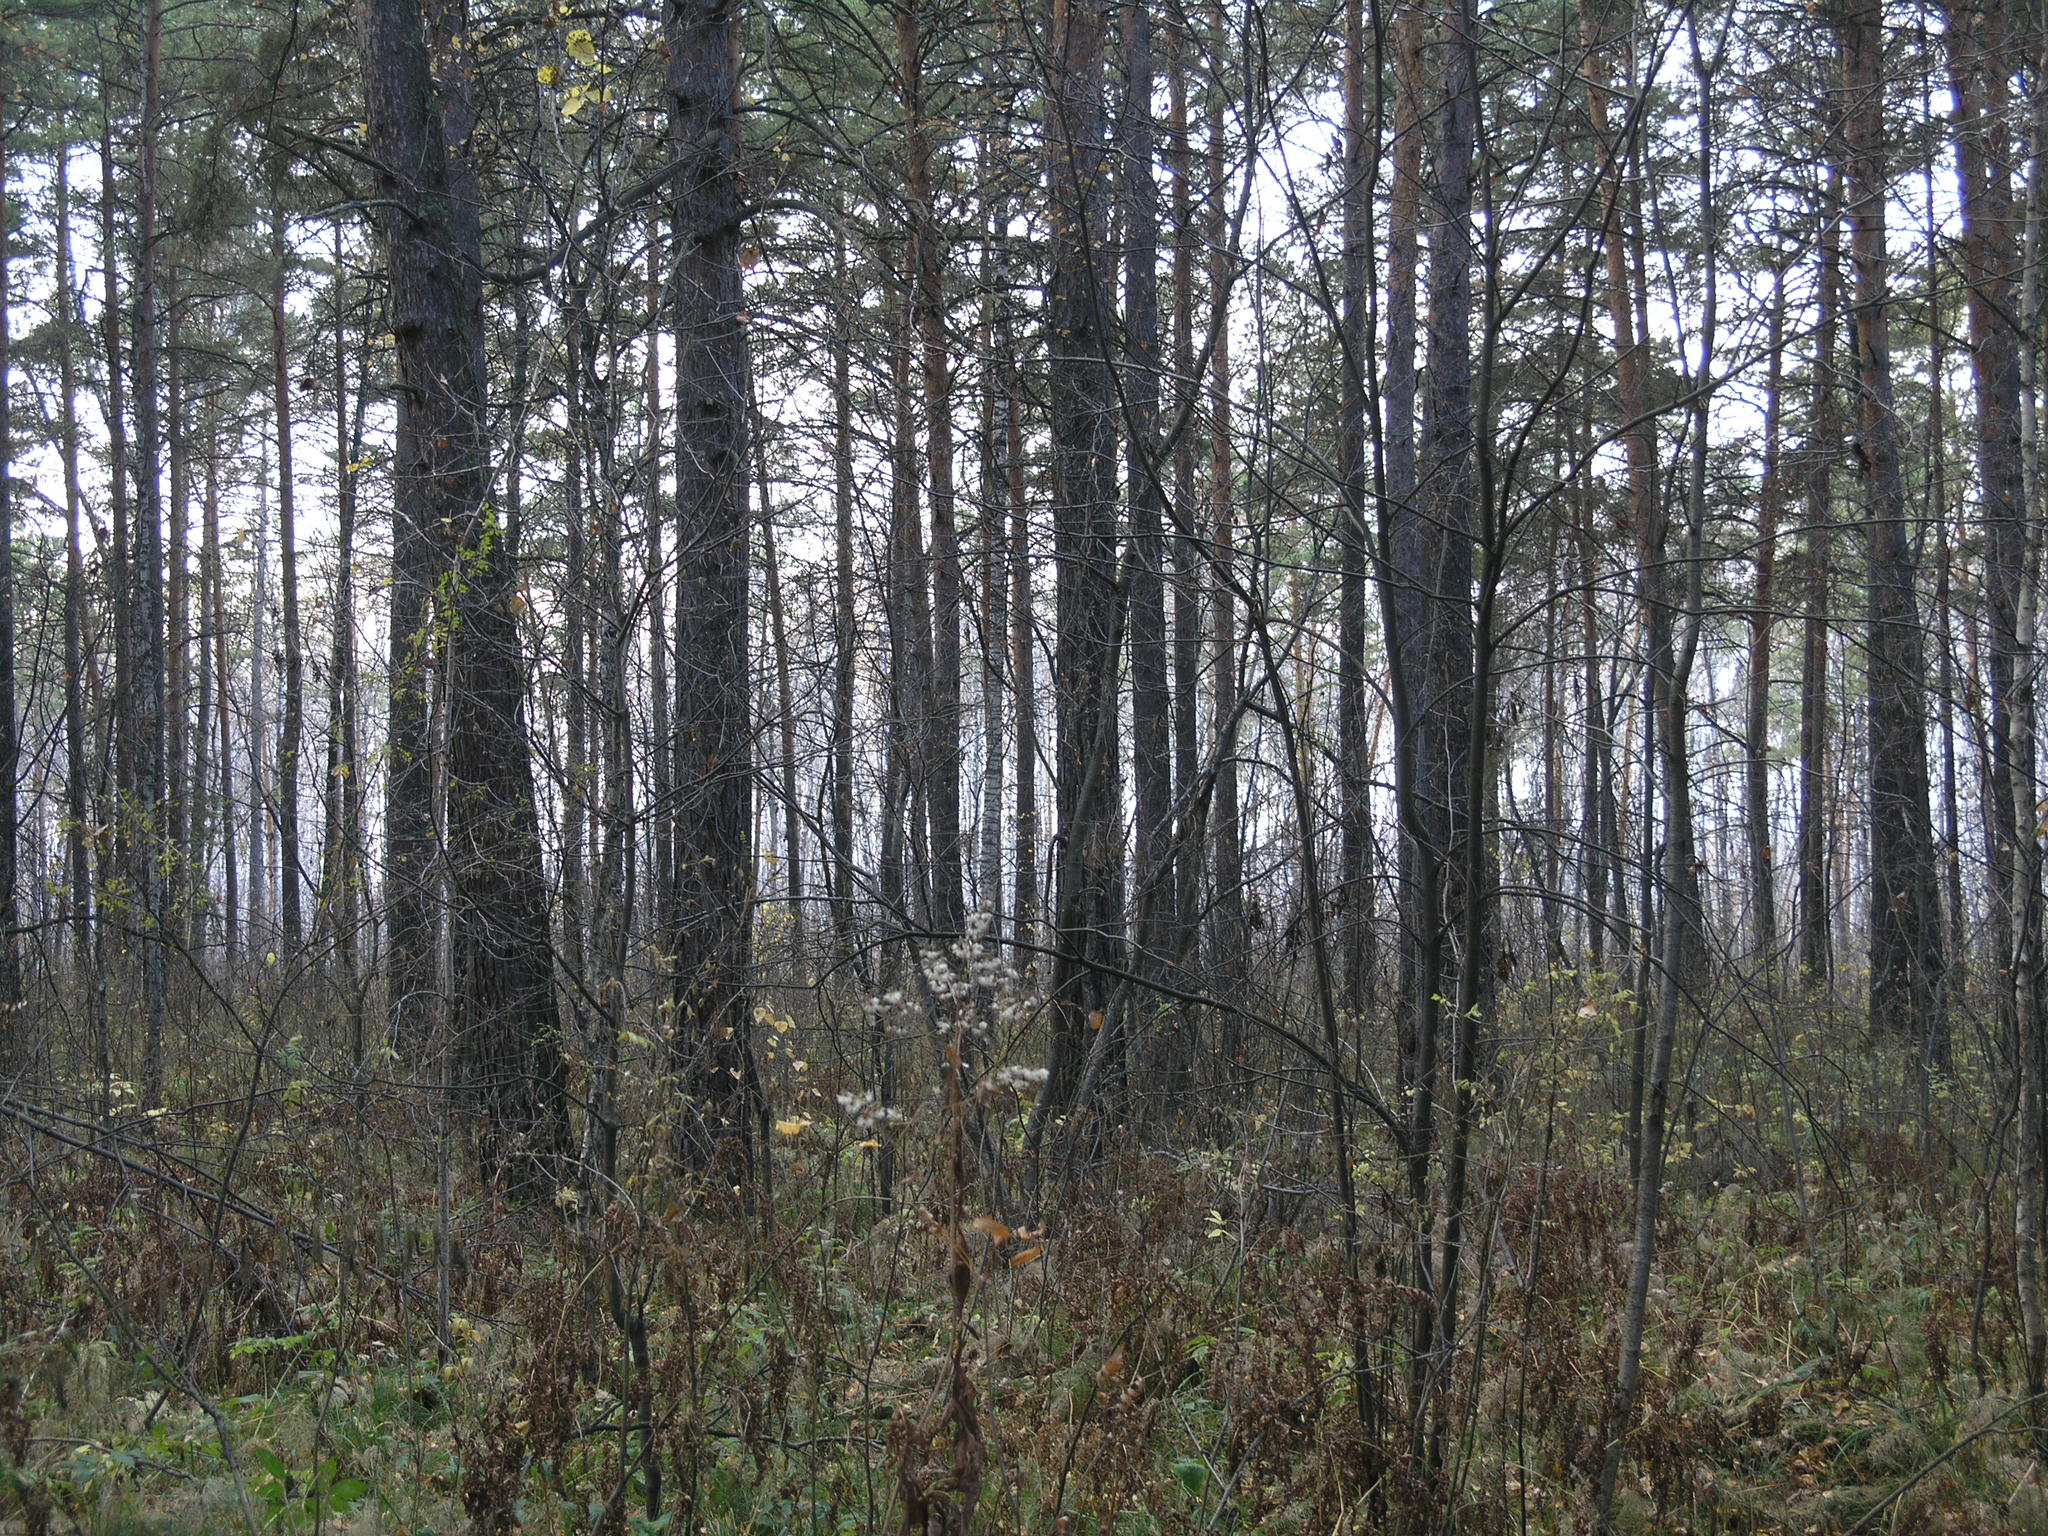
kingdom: Plantae
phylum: Tracheophyta
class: Pinopsida
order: Pinales
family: Pinaceae
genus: Pinus
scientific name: Pinus sylvestris
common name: Scots pine
